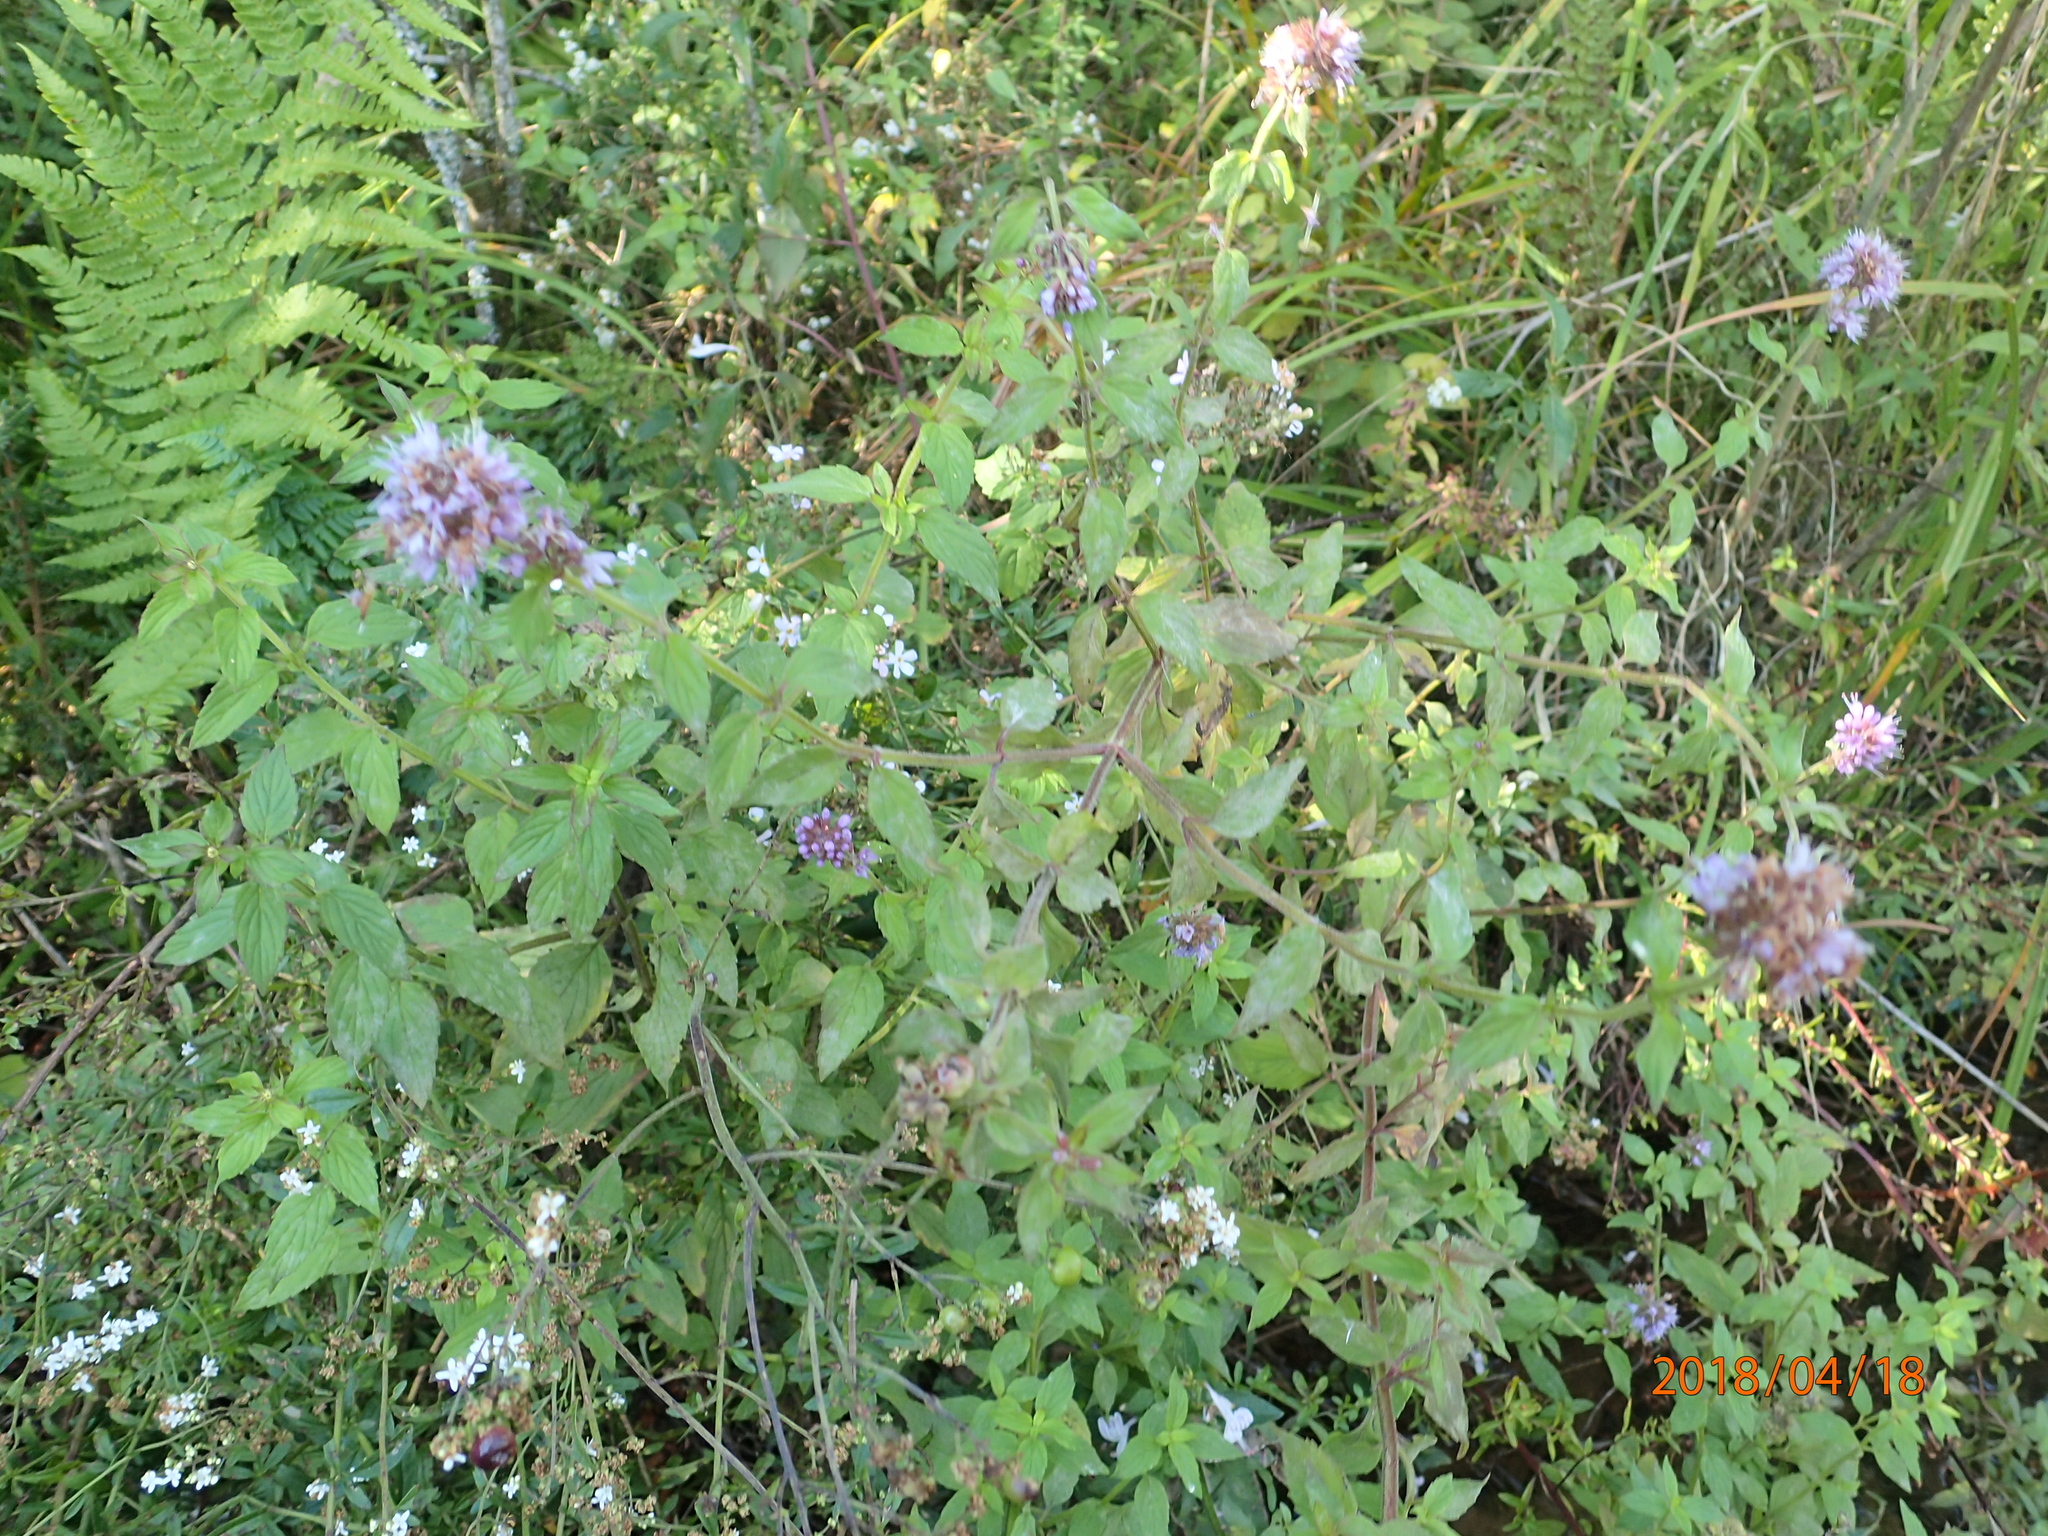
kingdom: Plantae
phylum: Tracheophyta
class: Magnoliopsida
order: Lamiales
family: Lamiaceae
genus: Mentha
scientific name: Mentha aquatica
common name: Water mint
